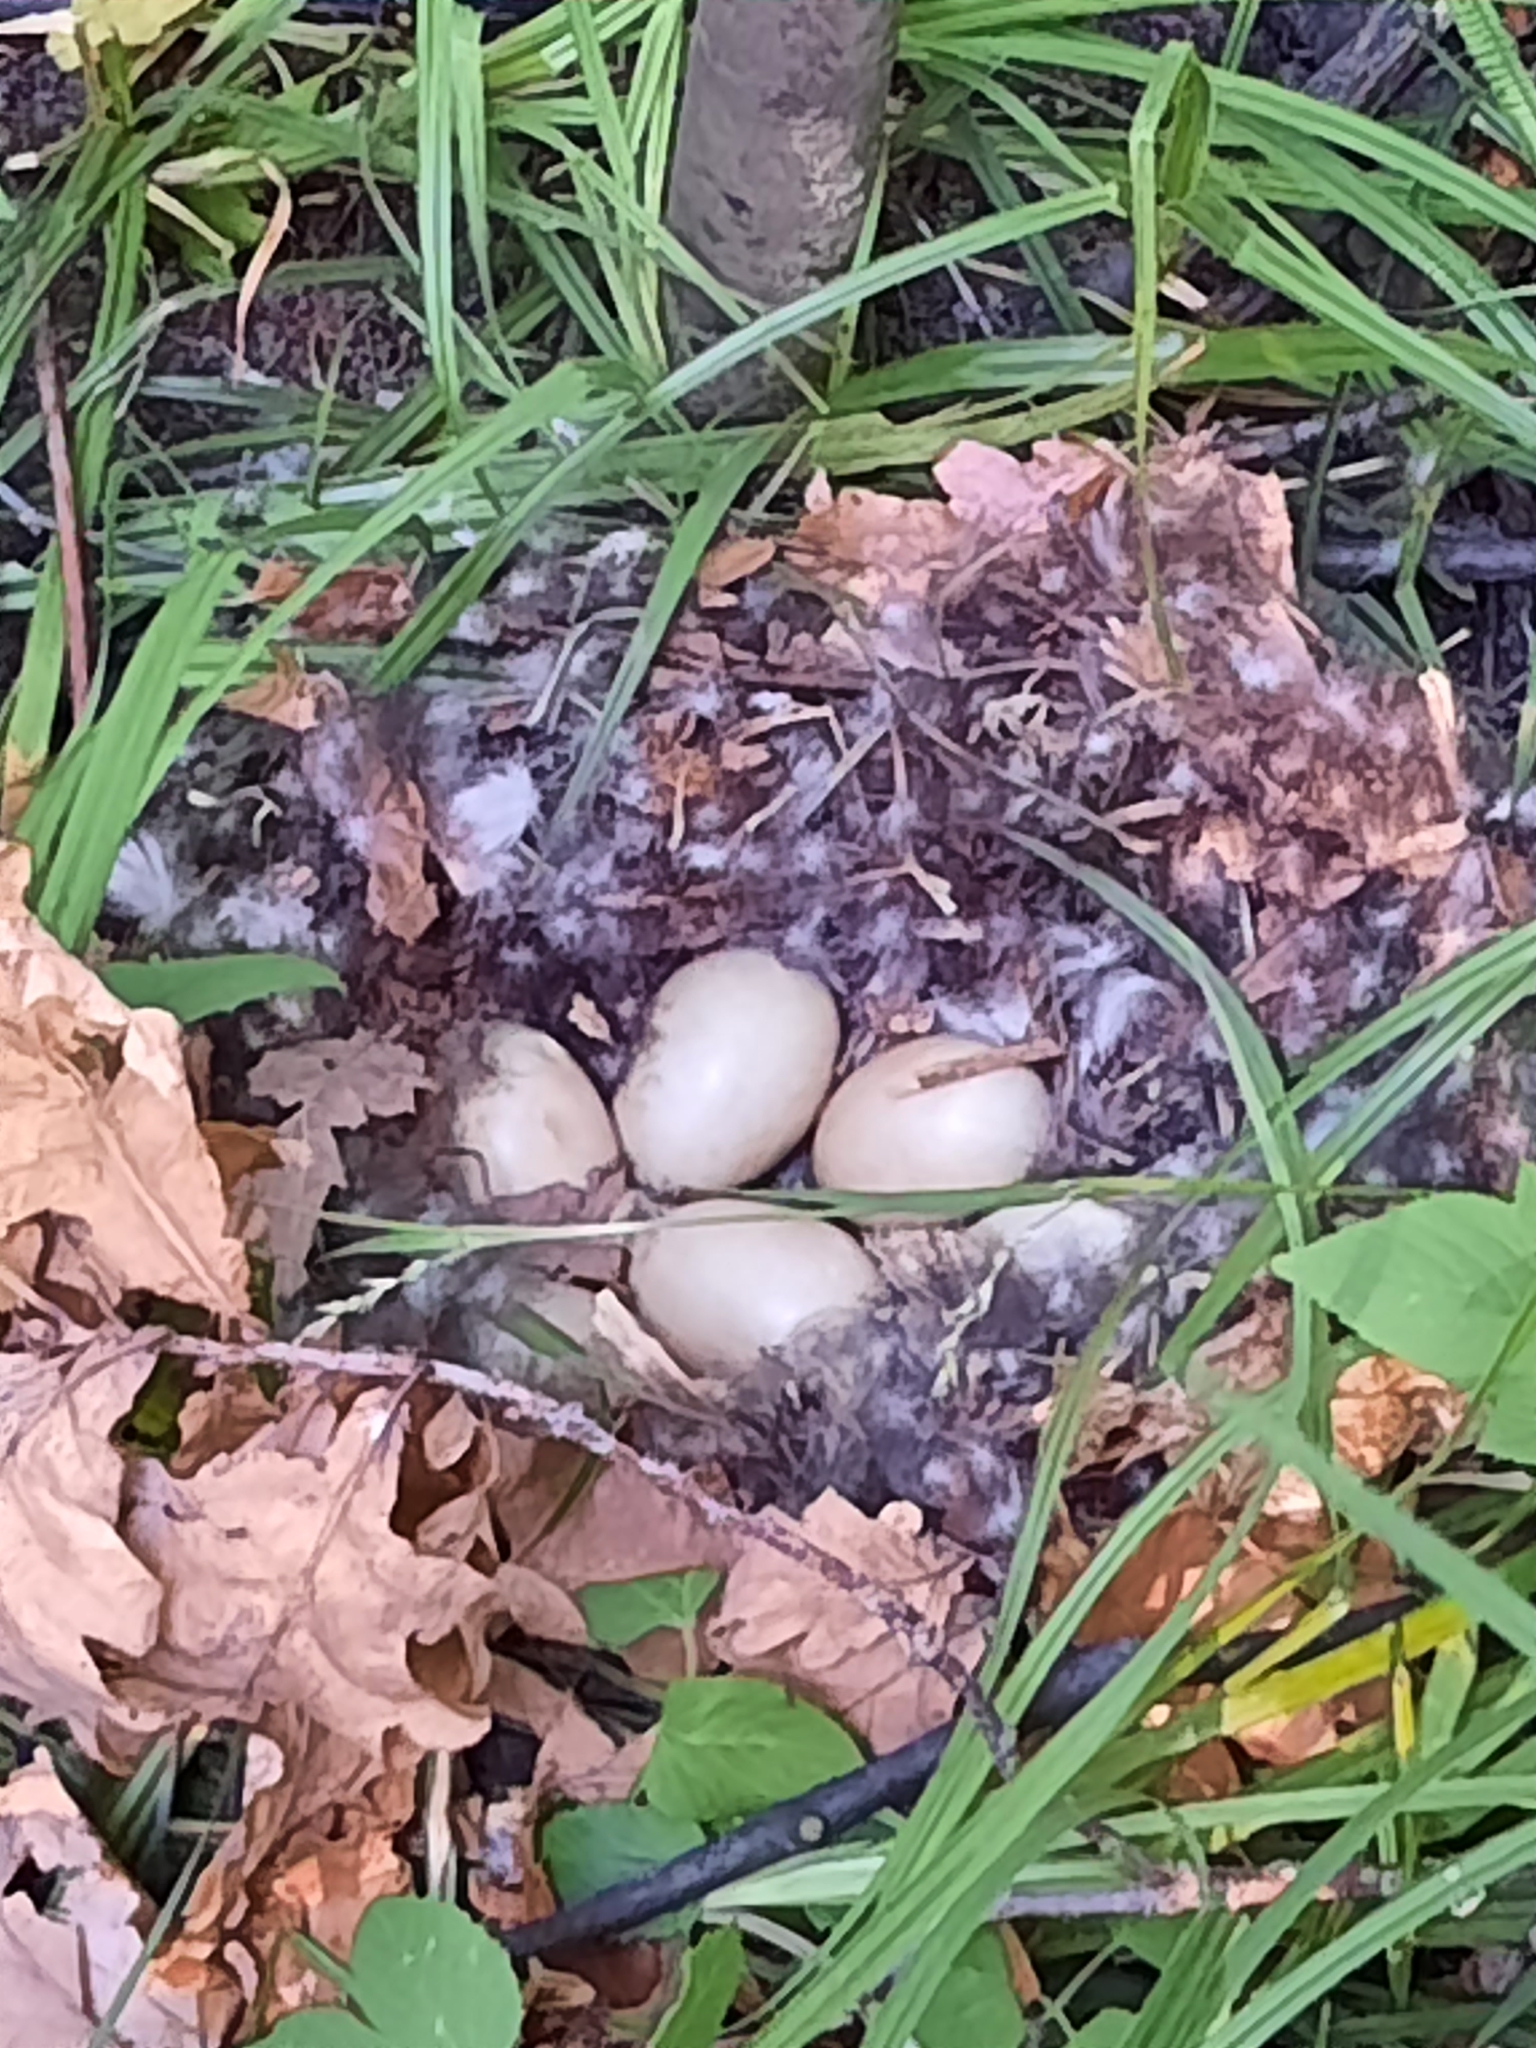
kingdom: Animalia
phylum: Chordata
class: Aves
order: Anseriformes
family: Anatidae
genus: Anas
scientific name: Anas platyrhynchos
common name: Mallard
